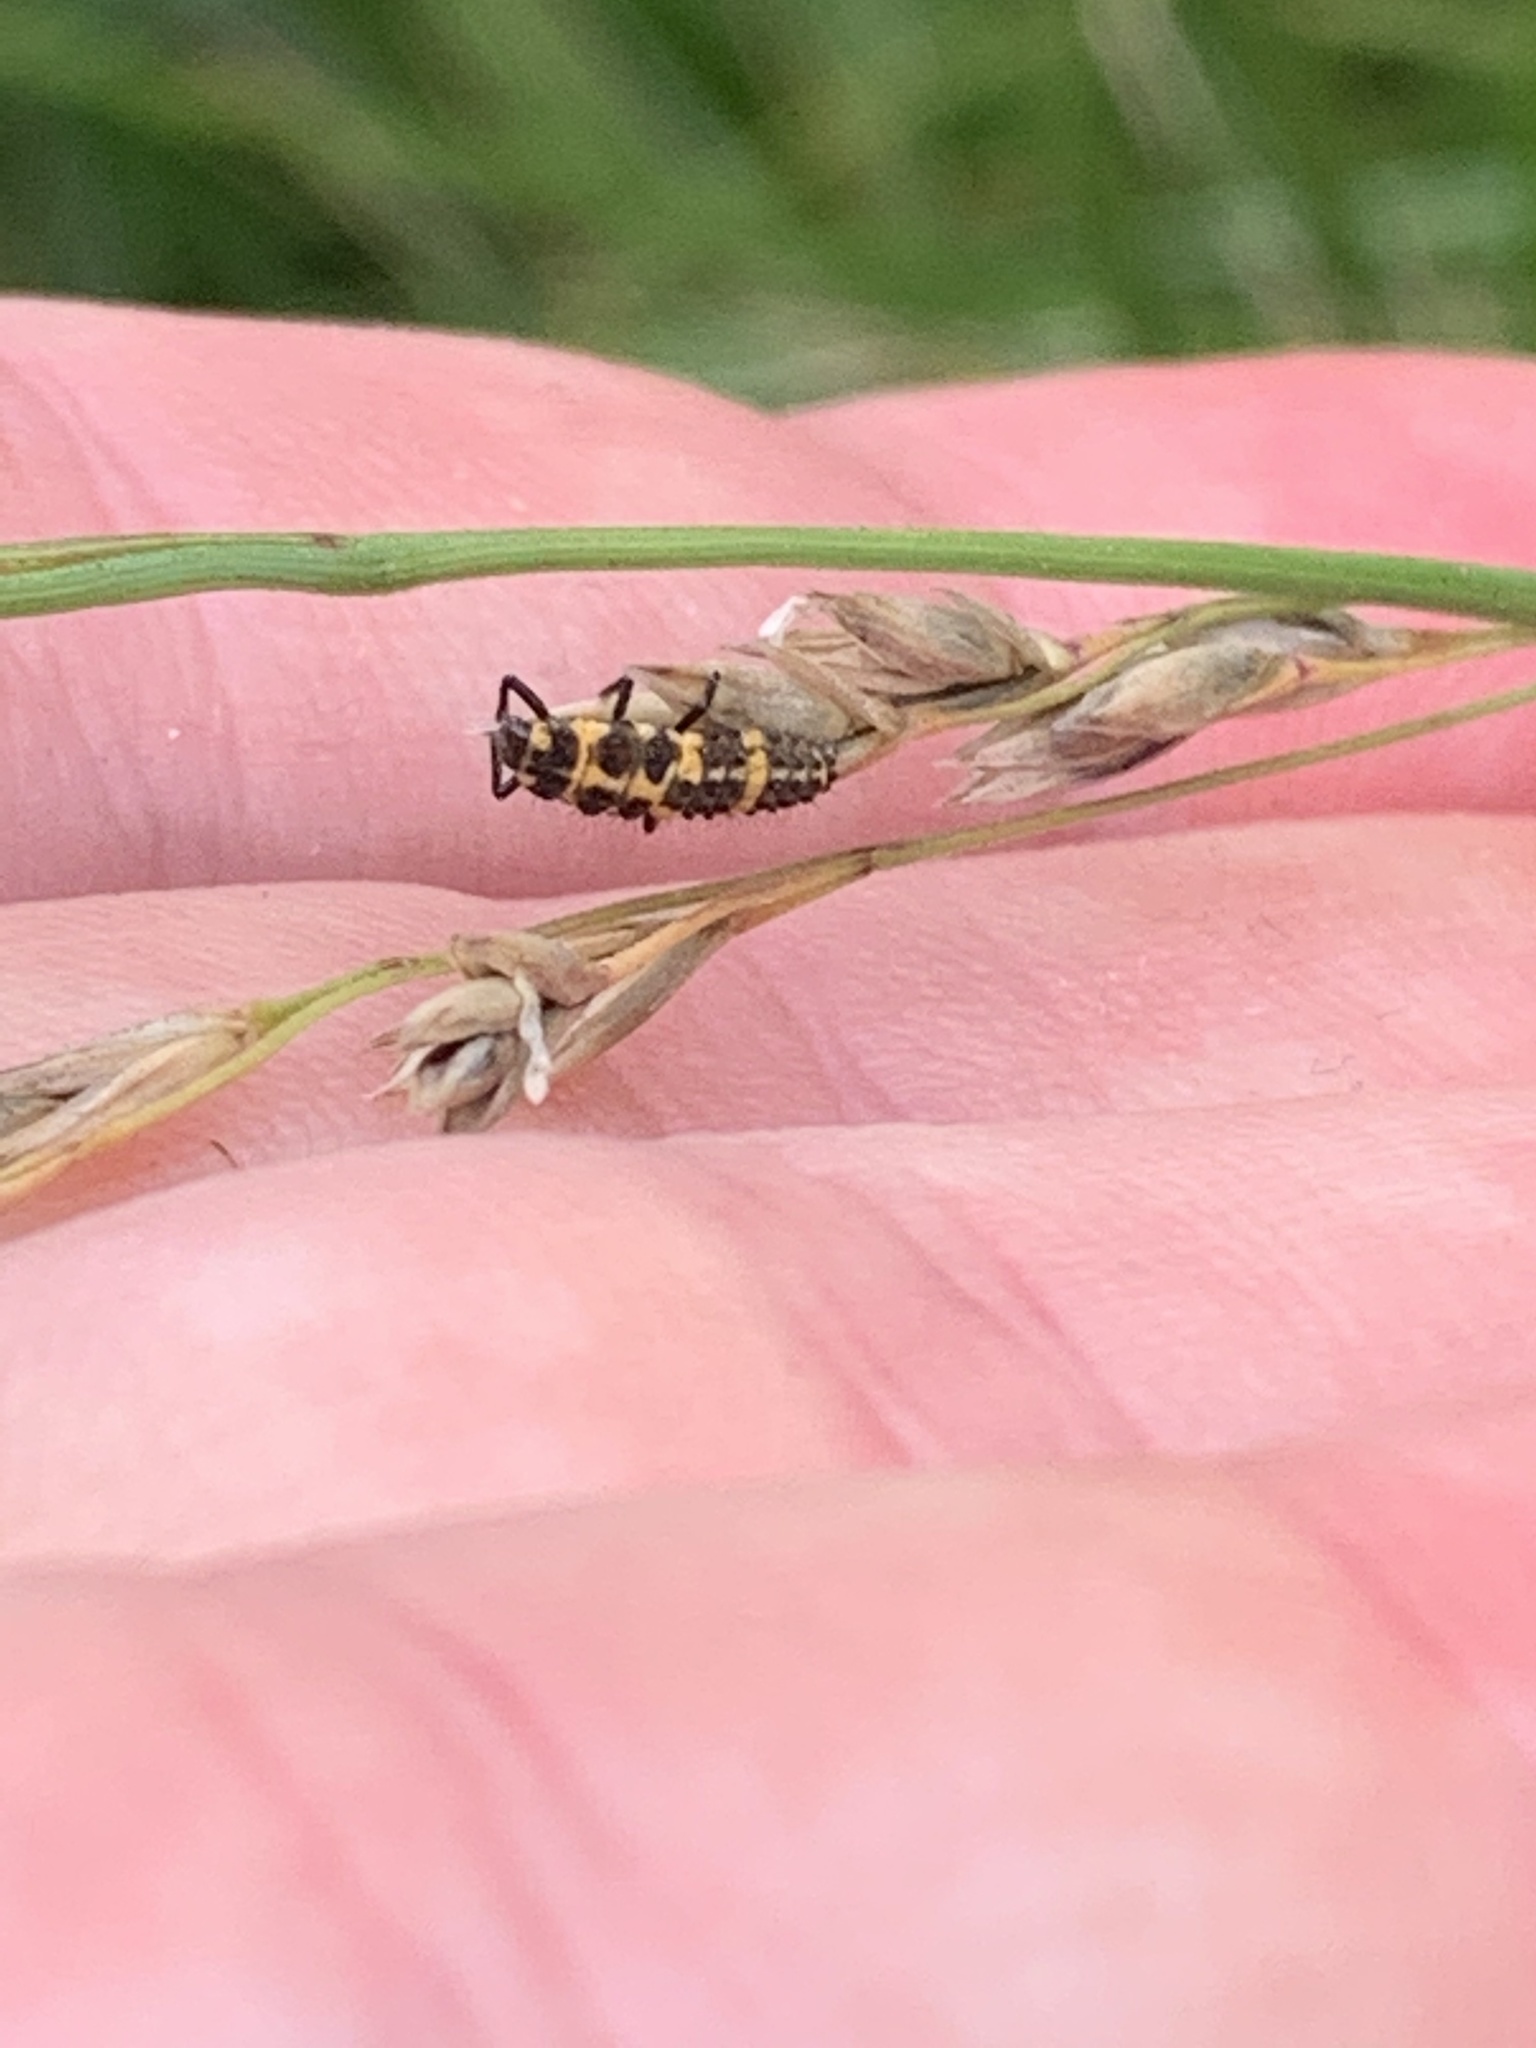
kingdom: Animalia
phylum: Arthropoda
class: Insecta
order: Coleoptera
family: Coccinellidae
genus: Coleomegilla
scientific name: Coleomegilla maculata
